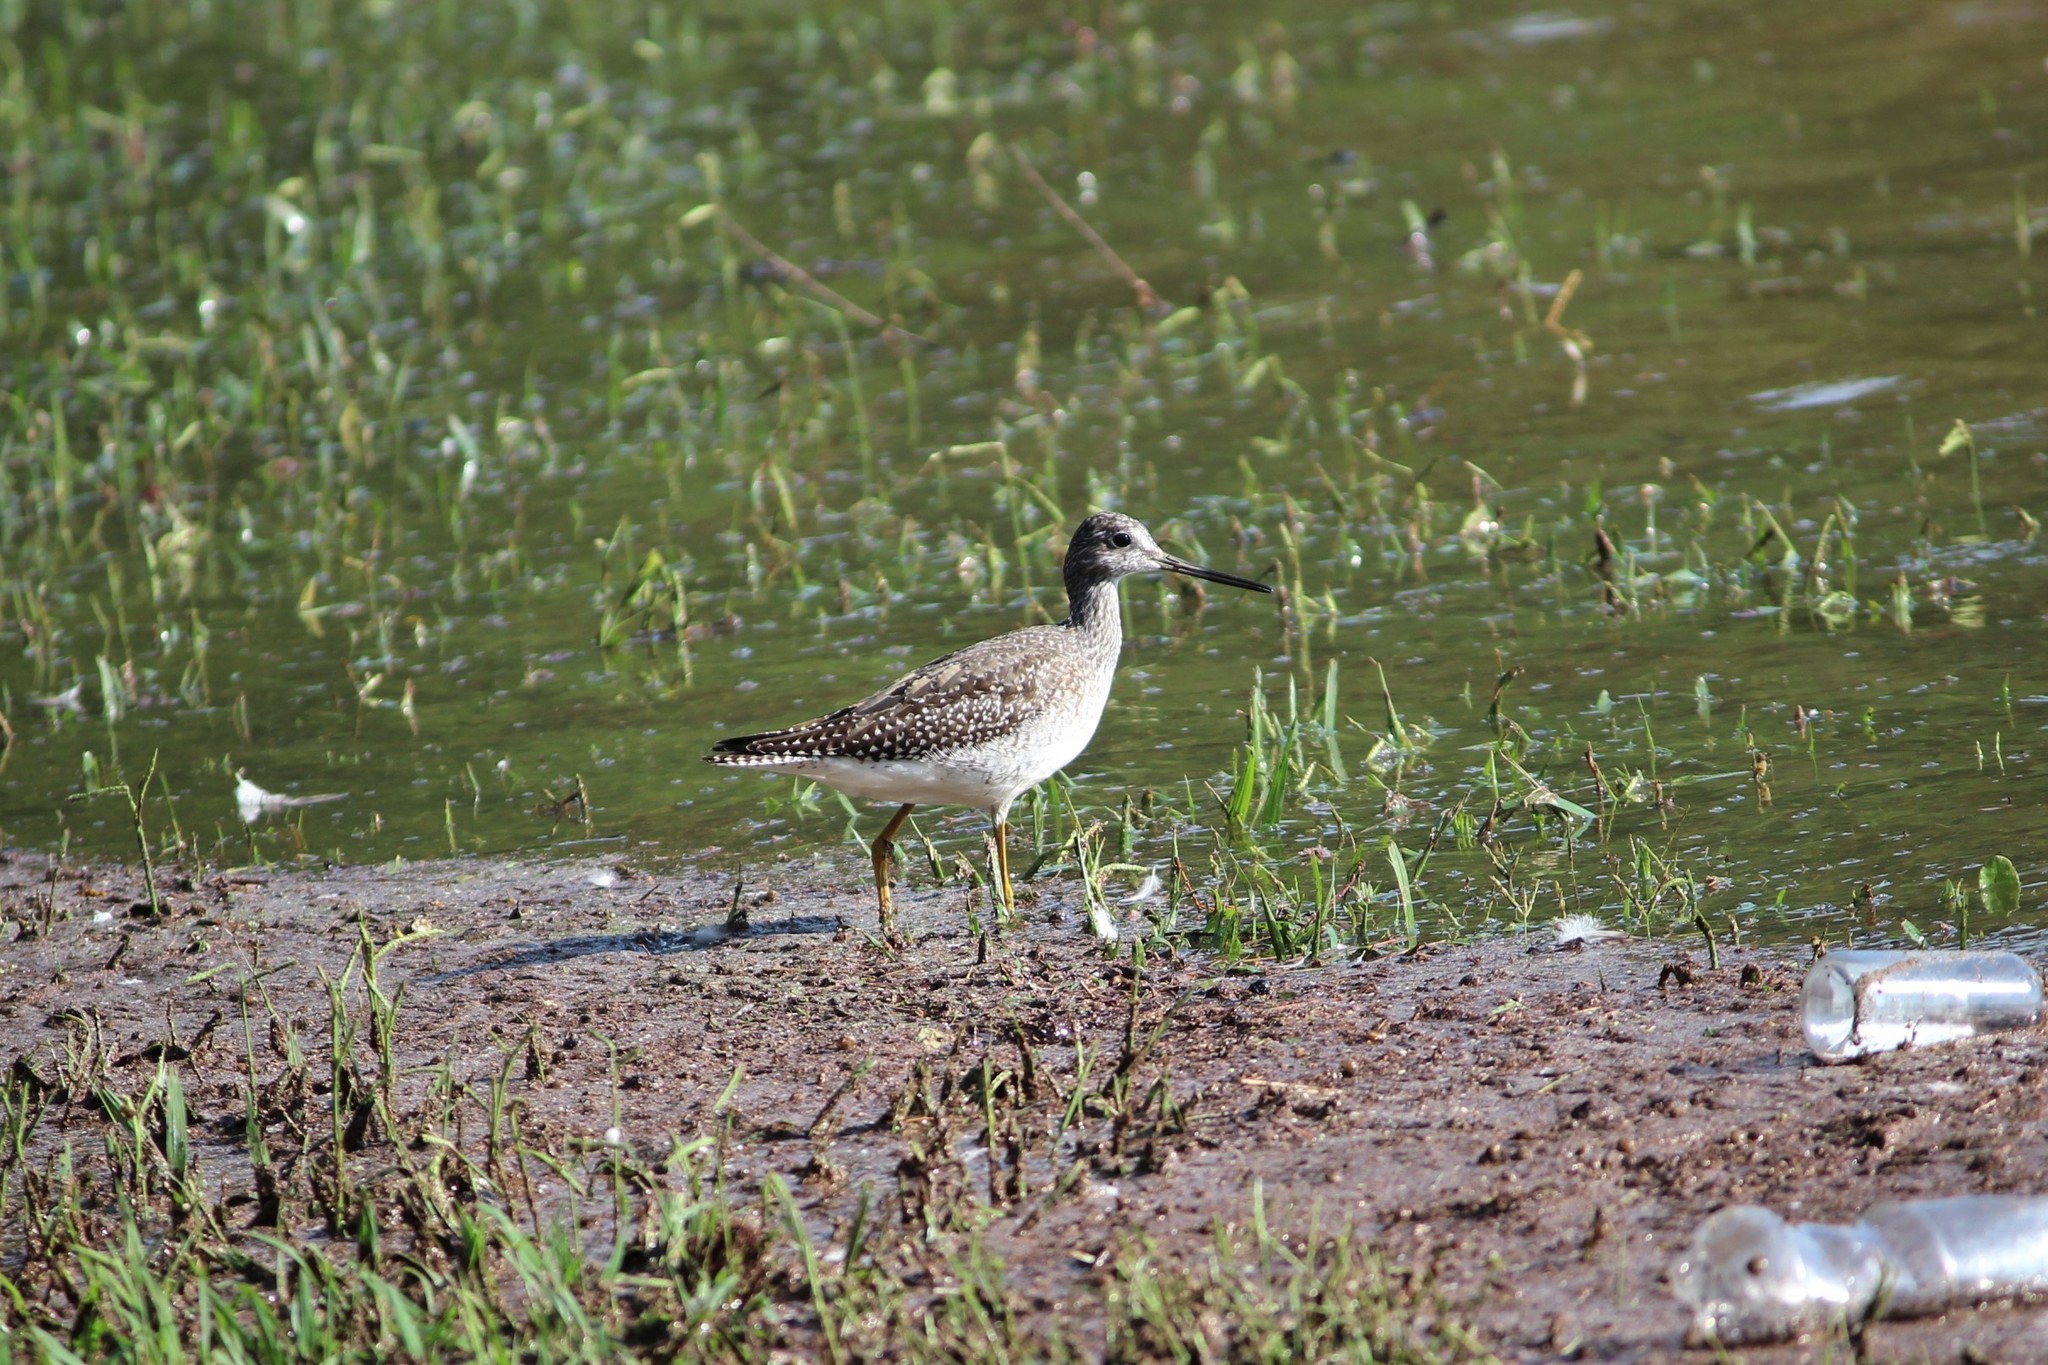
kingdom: Animalia
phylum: Chordata
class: Aves
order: Charadriiformes
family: Scolopacidae
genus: Tringa
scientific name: Tringa melanoleuca
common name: Greater yellowlegs
